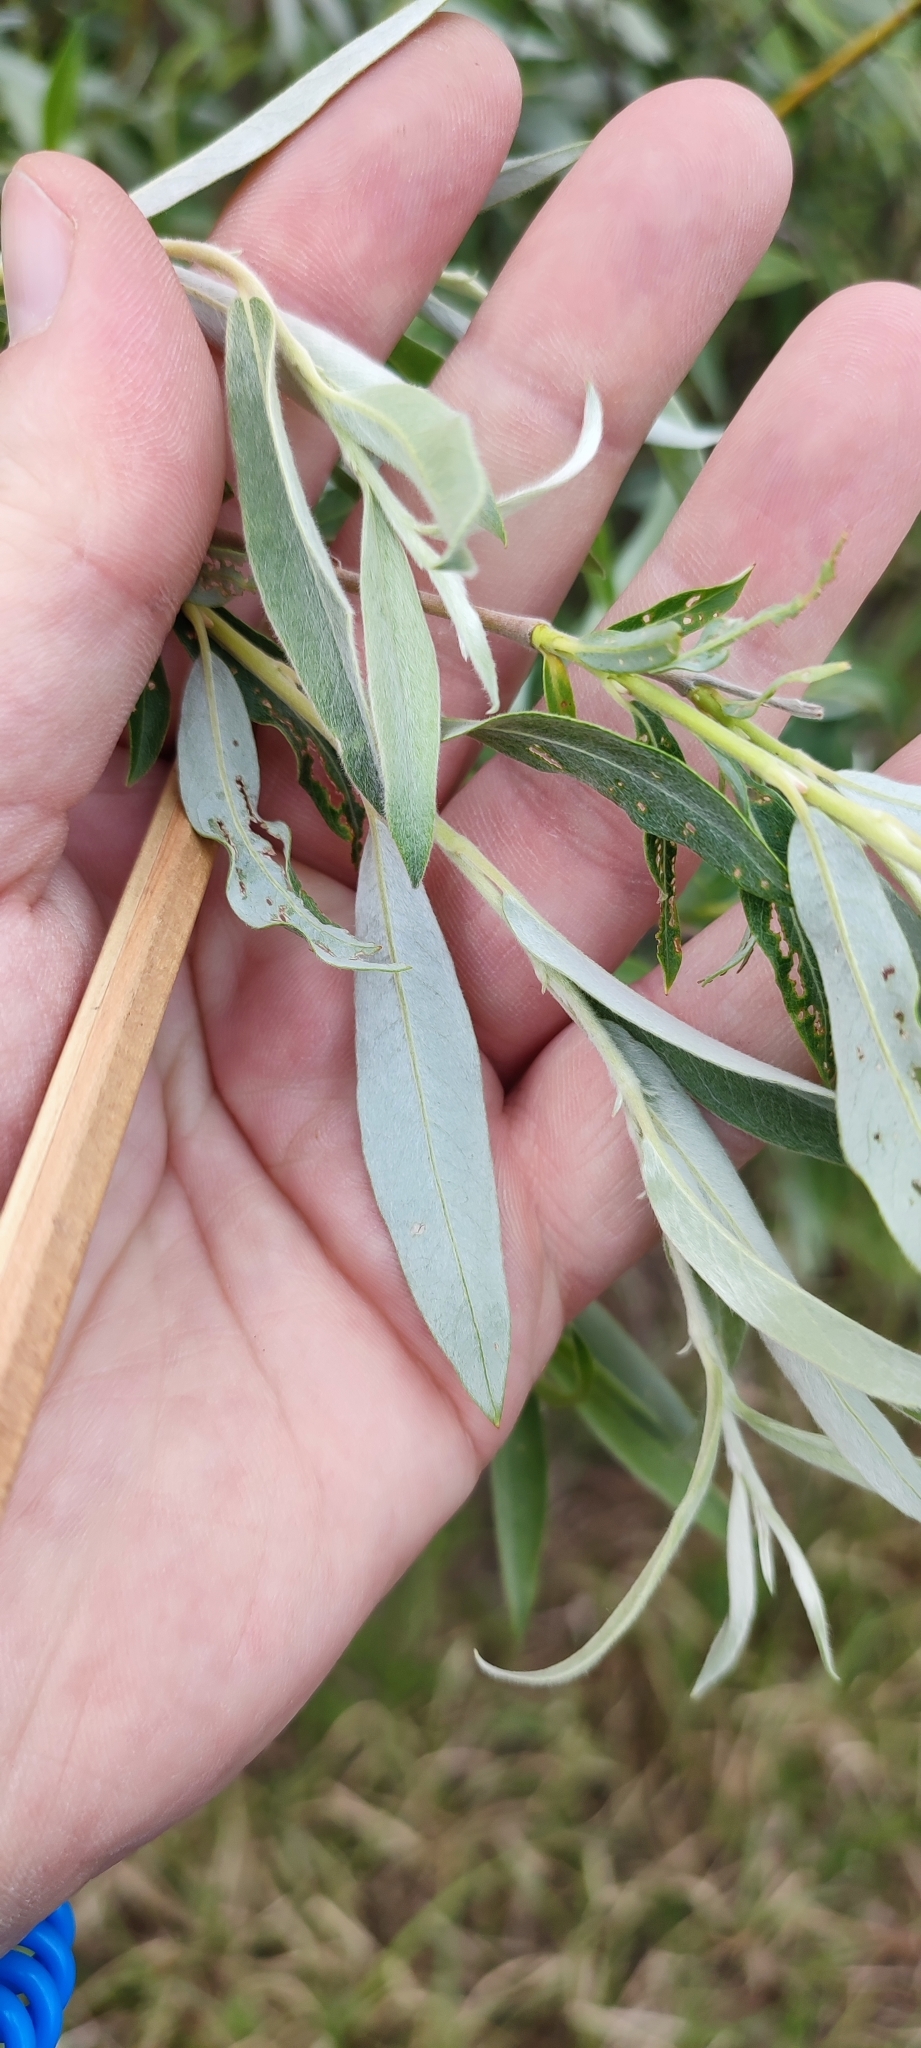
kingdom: Plantae
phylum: Tracheophyta
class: Magnoliopsida
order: Malpighiales
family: Salicaceae
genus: Salix
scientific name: Salix alba
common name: White willow
